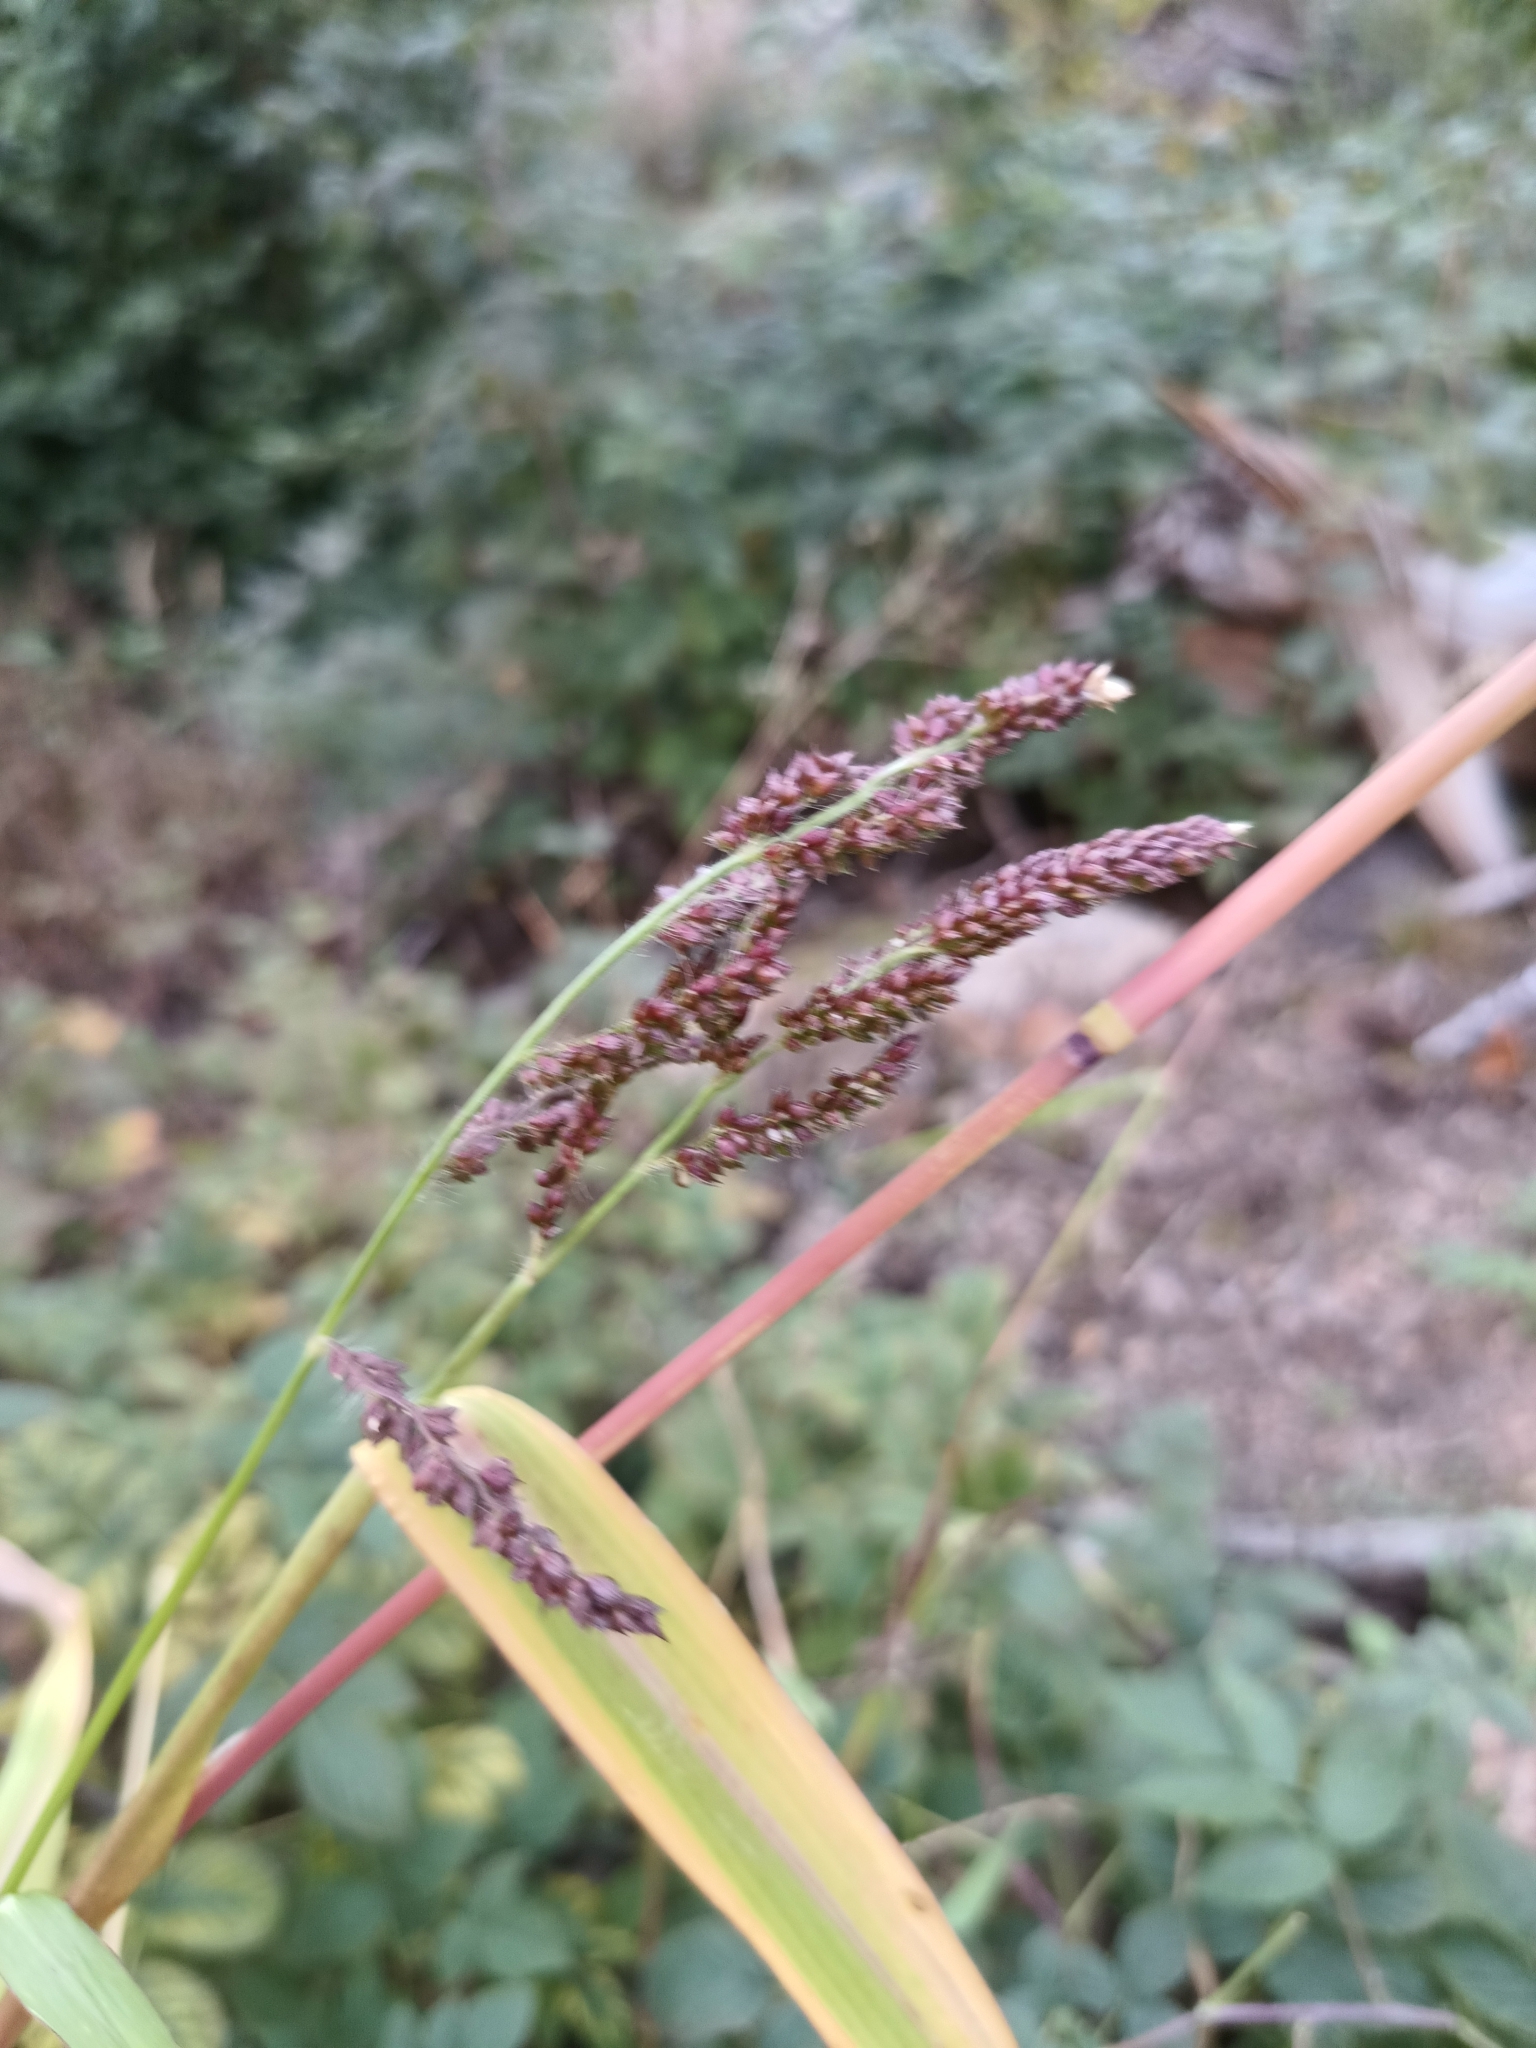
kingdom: Plantae
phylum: Tracheophyta
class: Liliopsida
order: Poales
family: Poaceae
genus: Echinochloa
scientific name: Echinochloa crus-galli
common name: Cockspur
